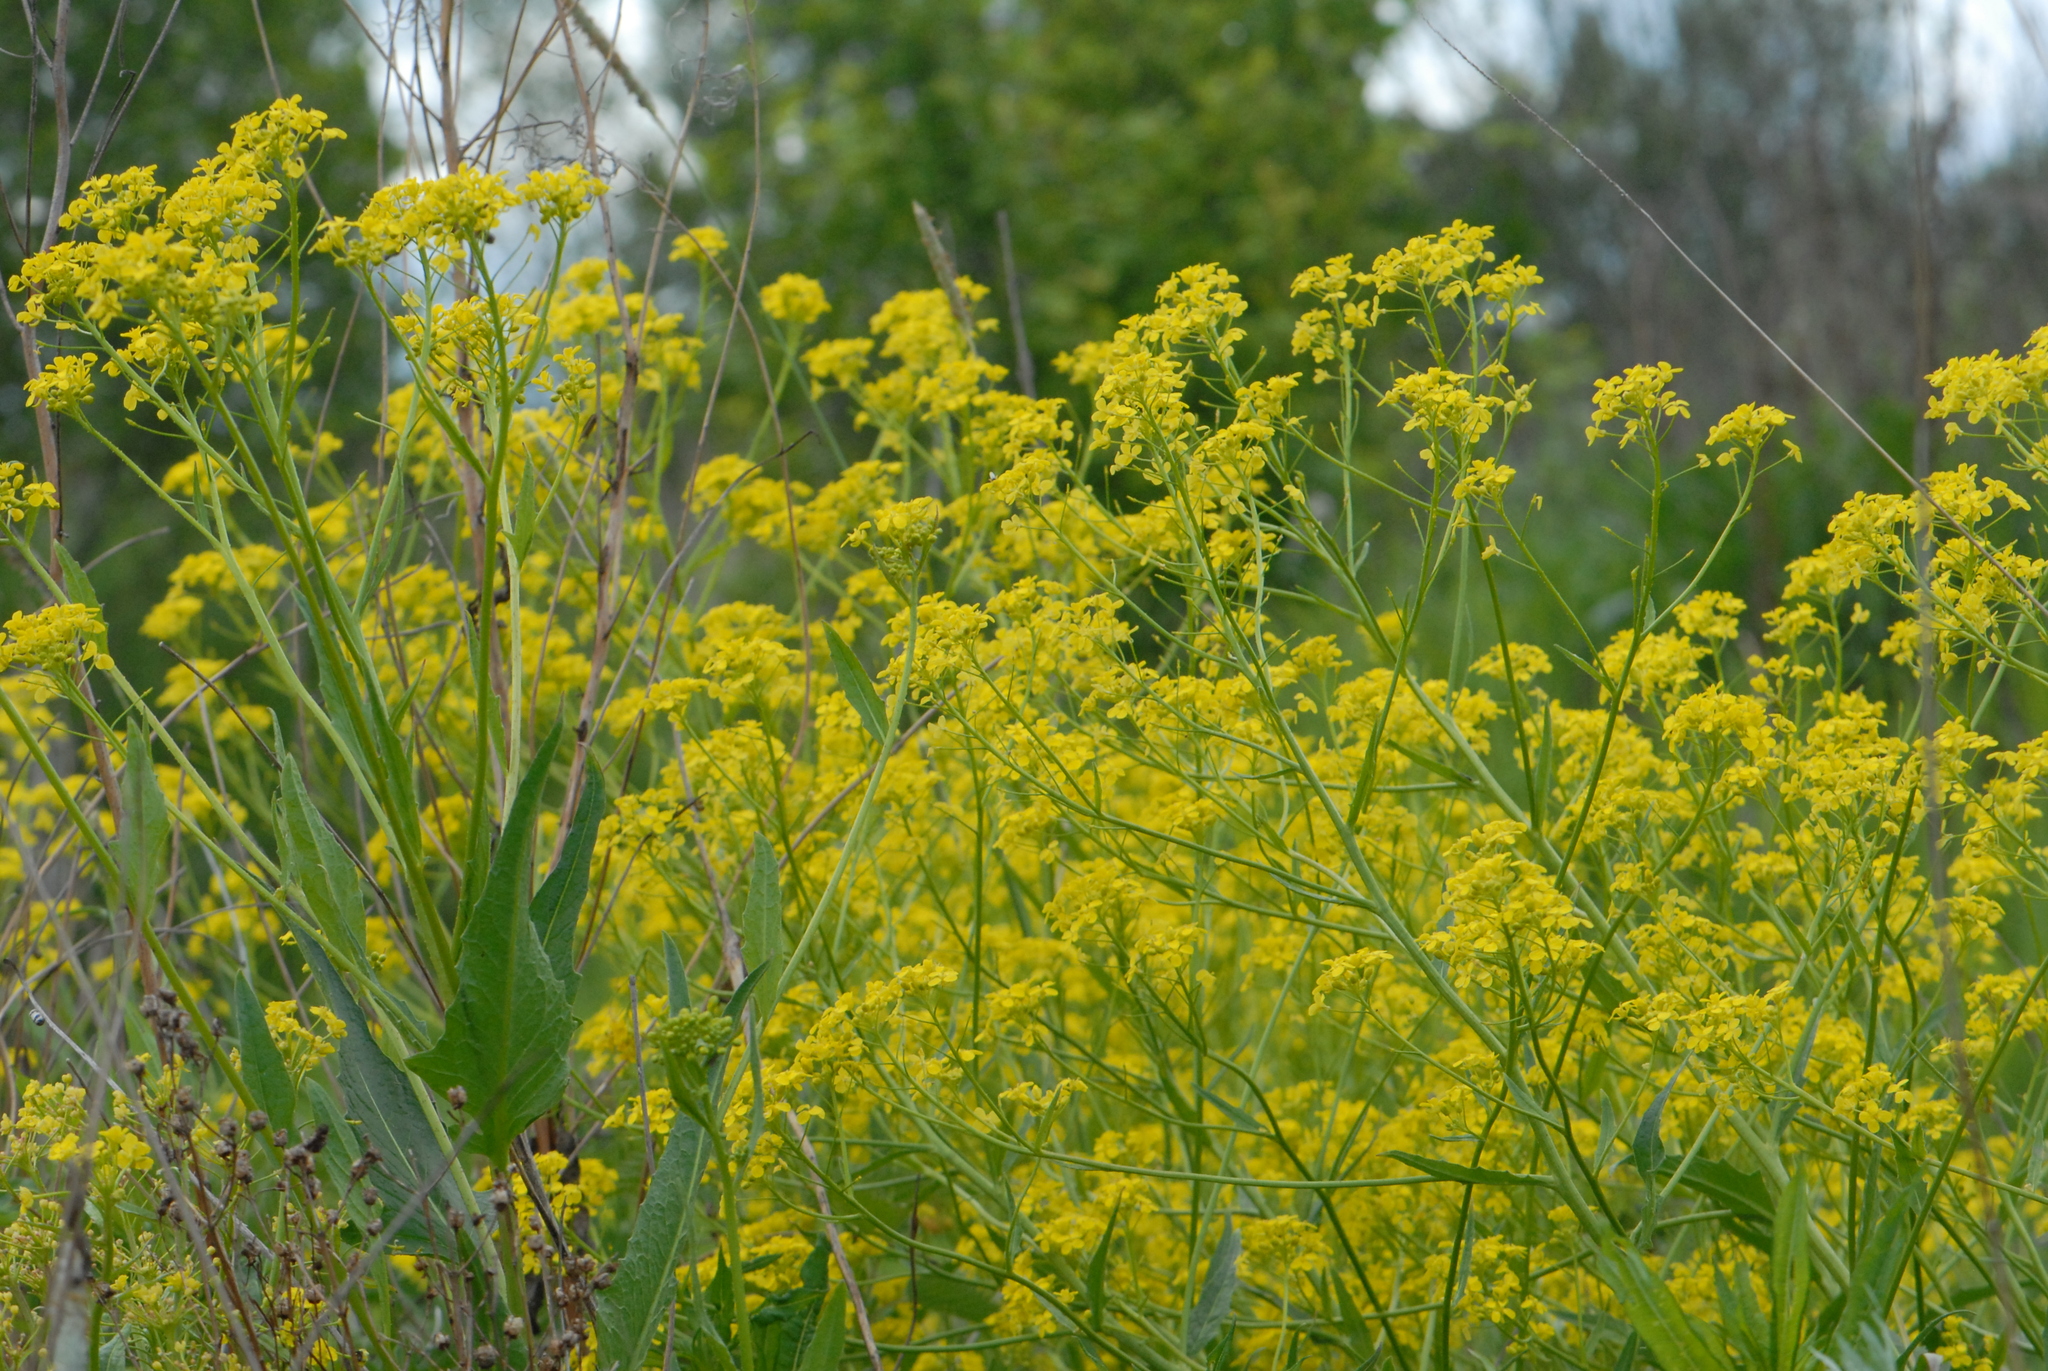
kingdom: Plantae
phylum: Tracheophyta
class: Magnoliopsida
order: Brassicales
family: Brassicaceae
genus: Bunias
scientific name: Bunias orientalis
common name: Warty-cabbage
